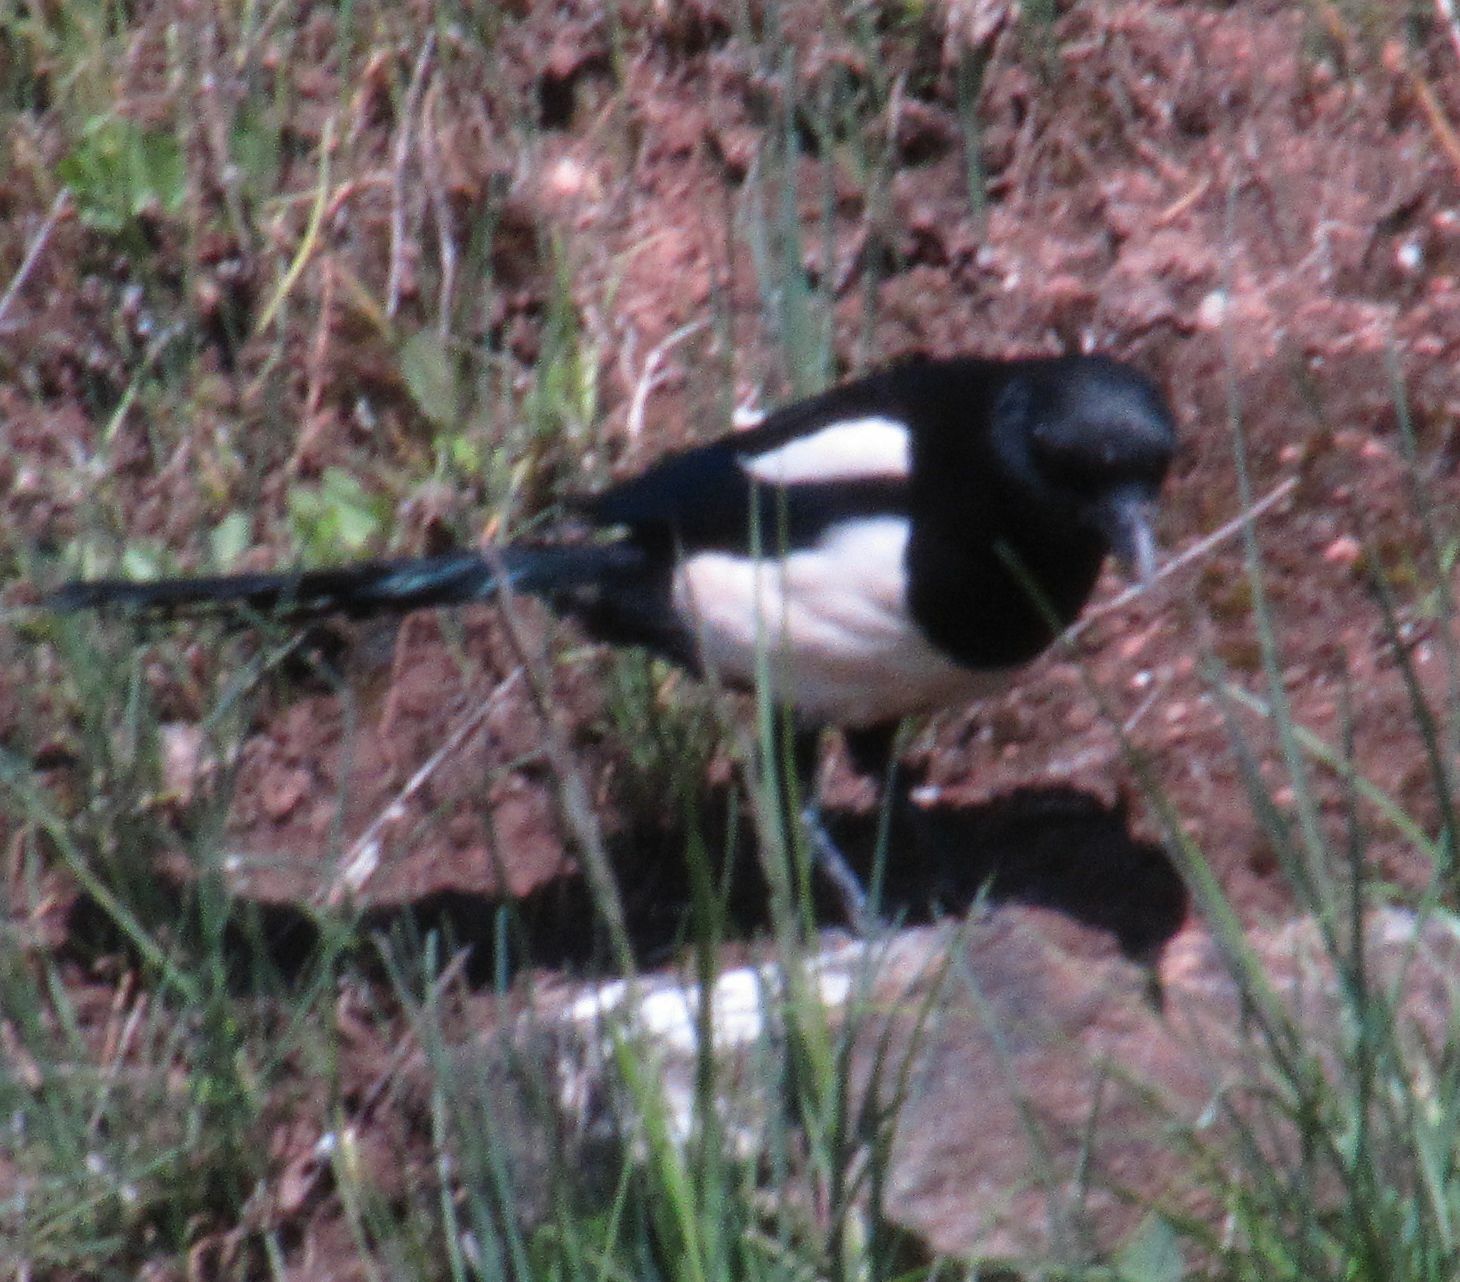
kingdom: Animalia
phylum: Chordata
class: Aves
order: Passeriformes
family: Corvidae
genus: Pica
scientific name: Pica pica
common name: Eurasian magpie
